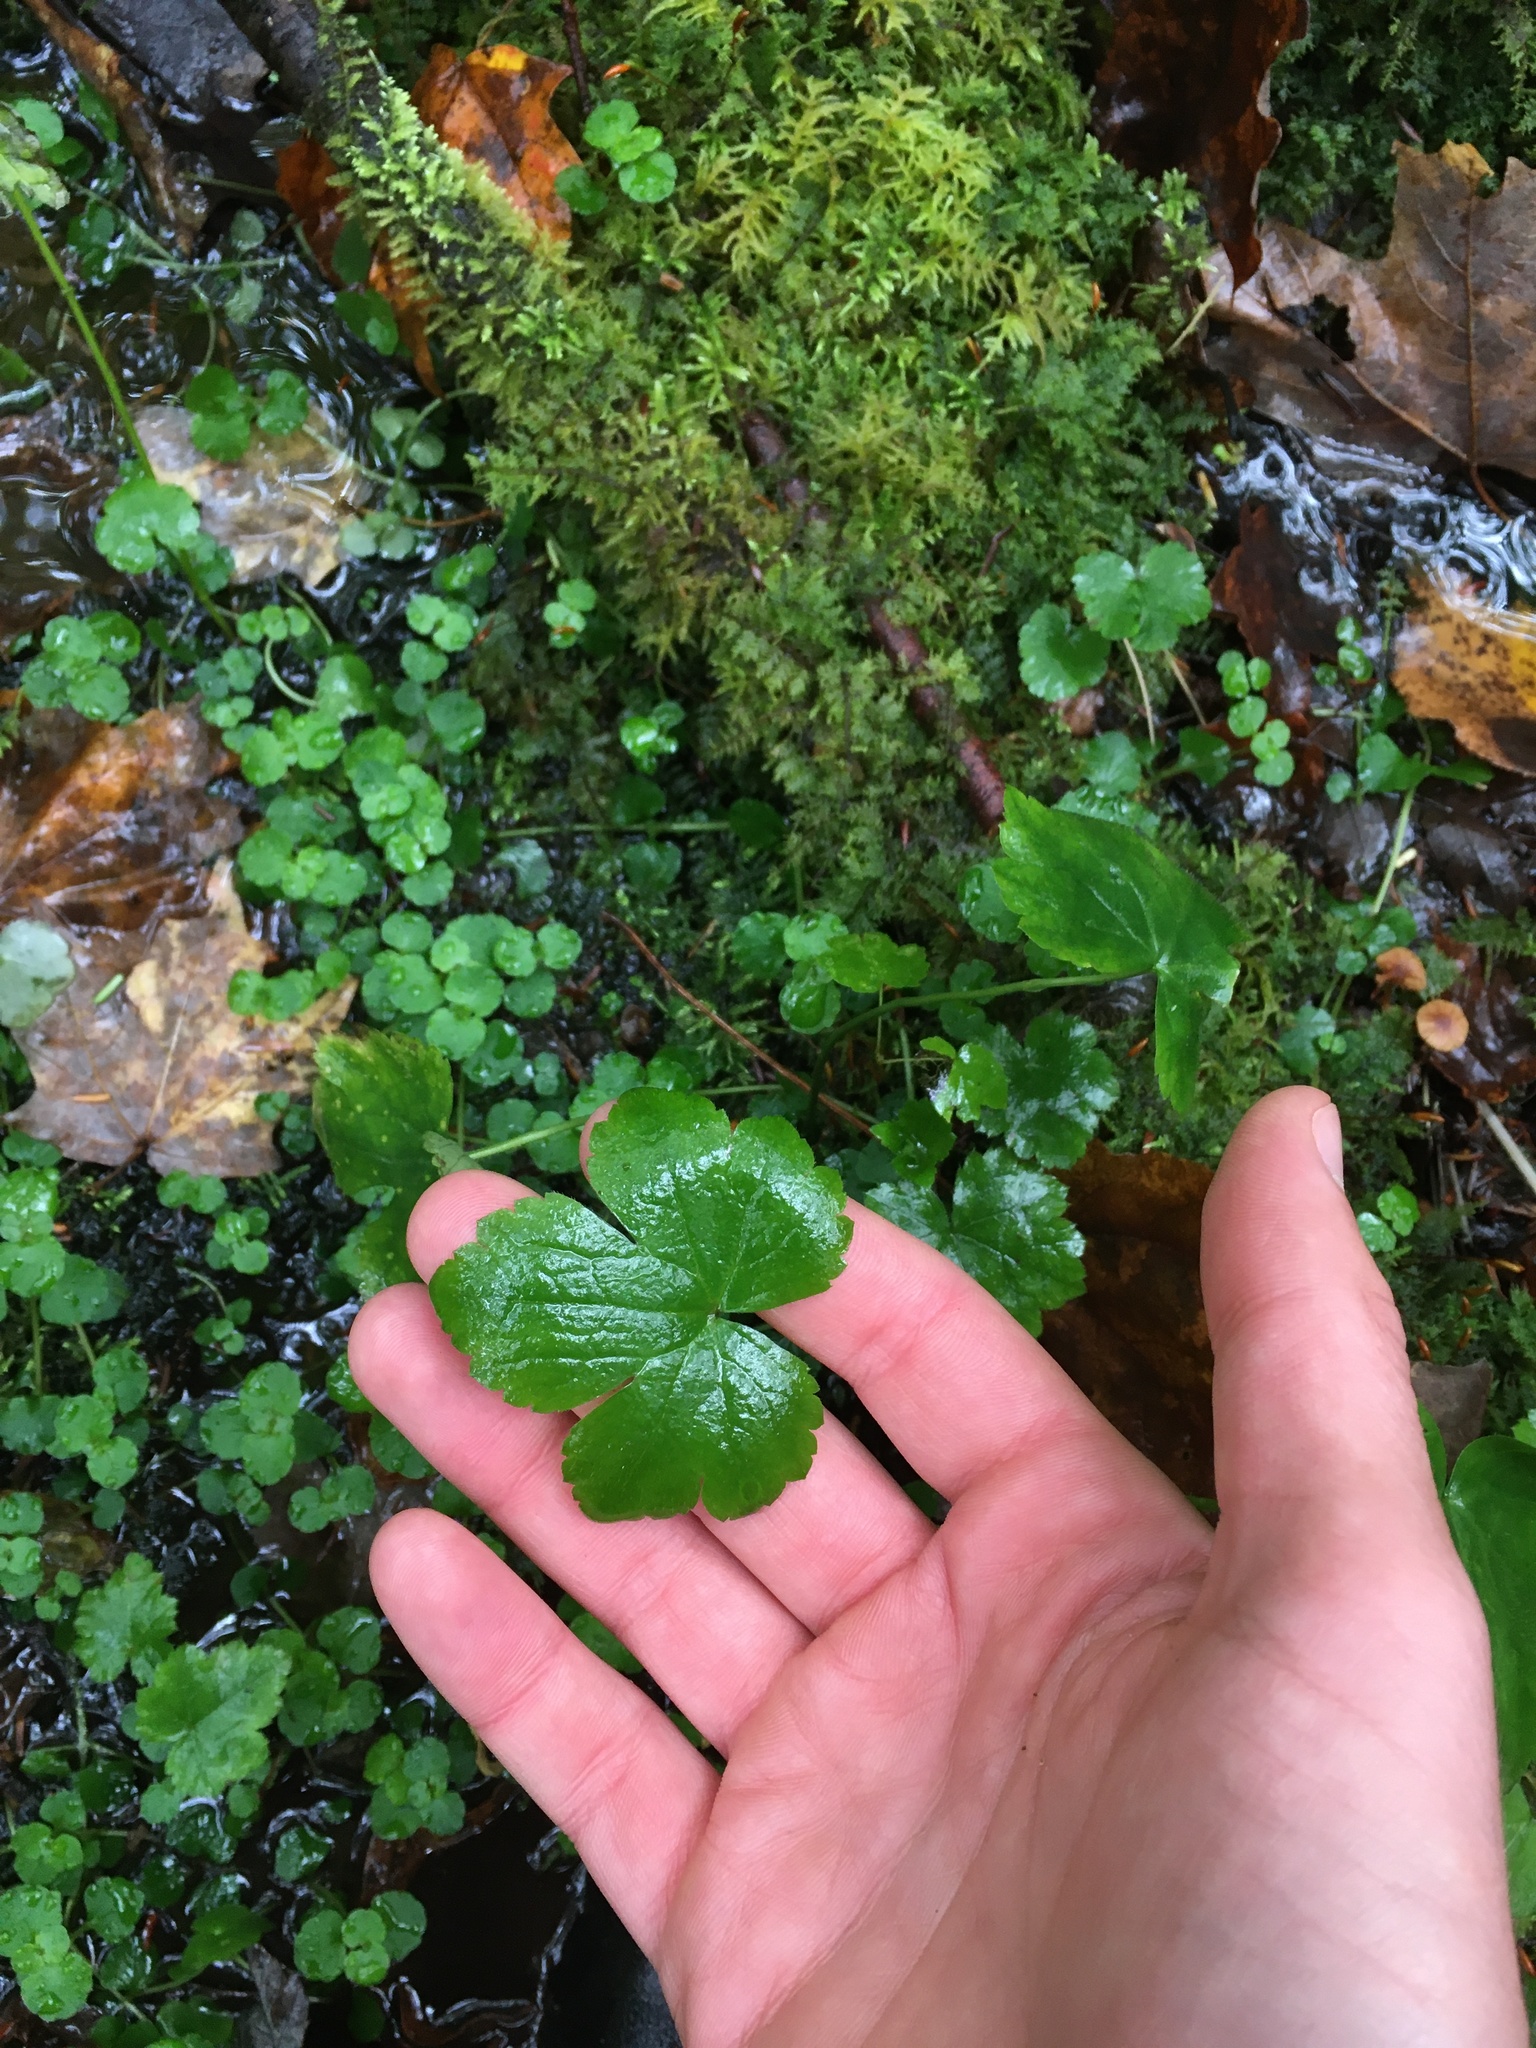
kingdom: Plantae
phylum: Tracheophyta
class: Magnoliopsida
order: Ranunculales
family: Ranunculaceae
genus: Ranunculus
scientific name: Ranunculus recurvatus
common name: Blisterwort
